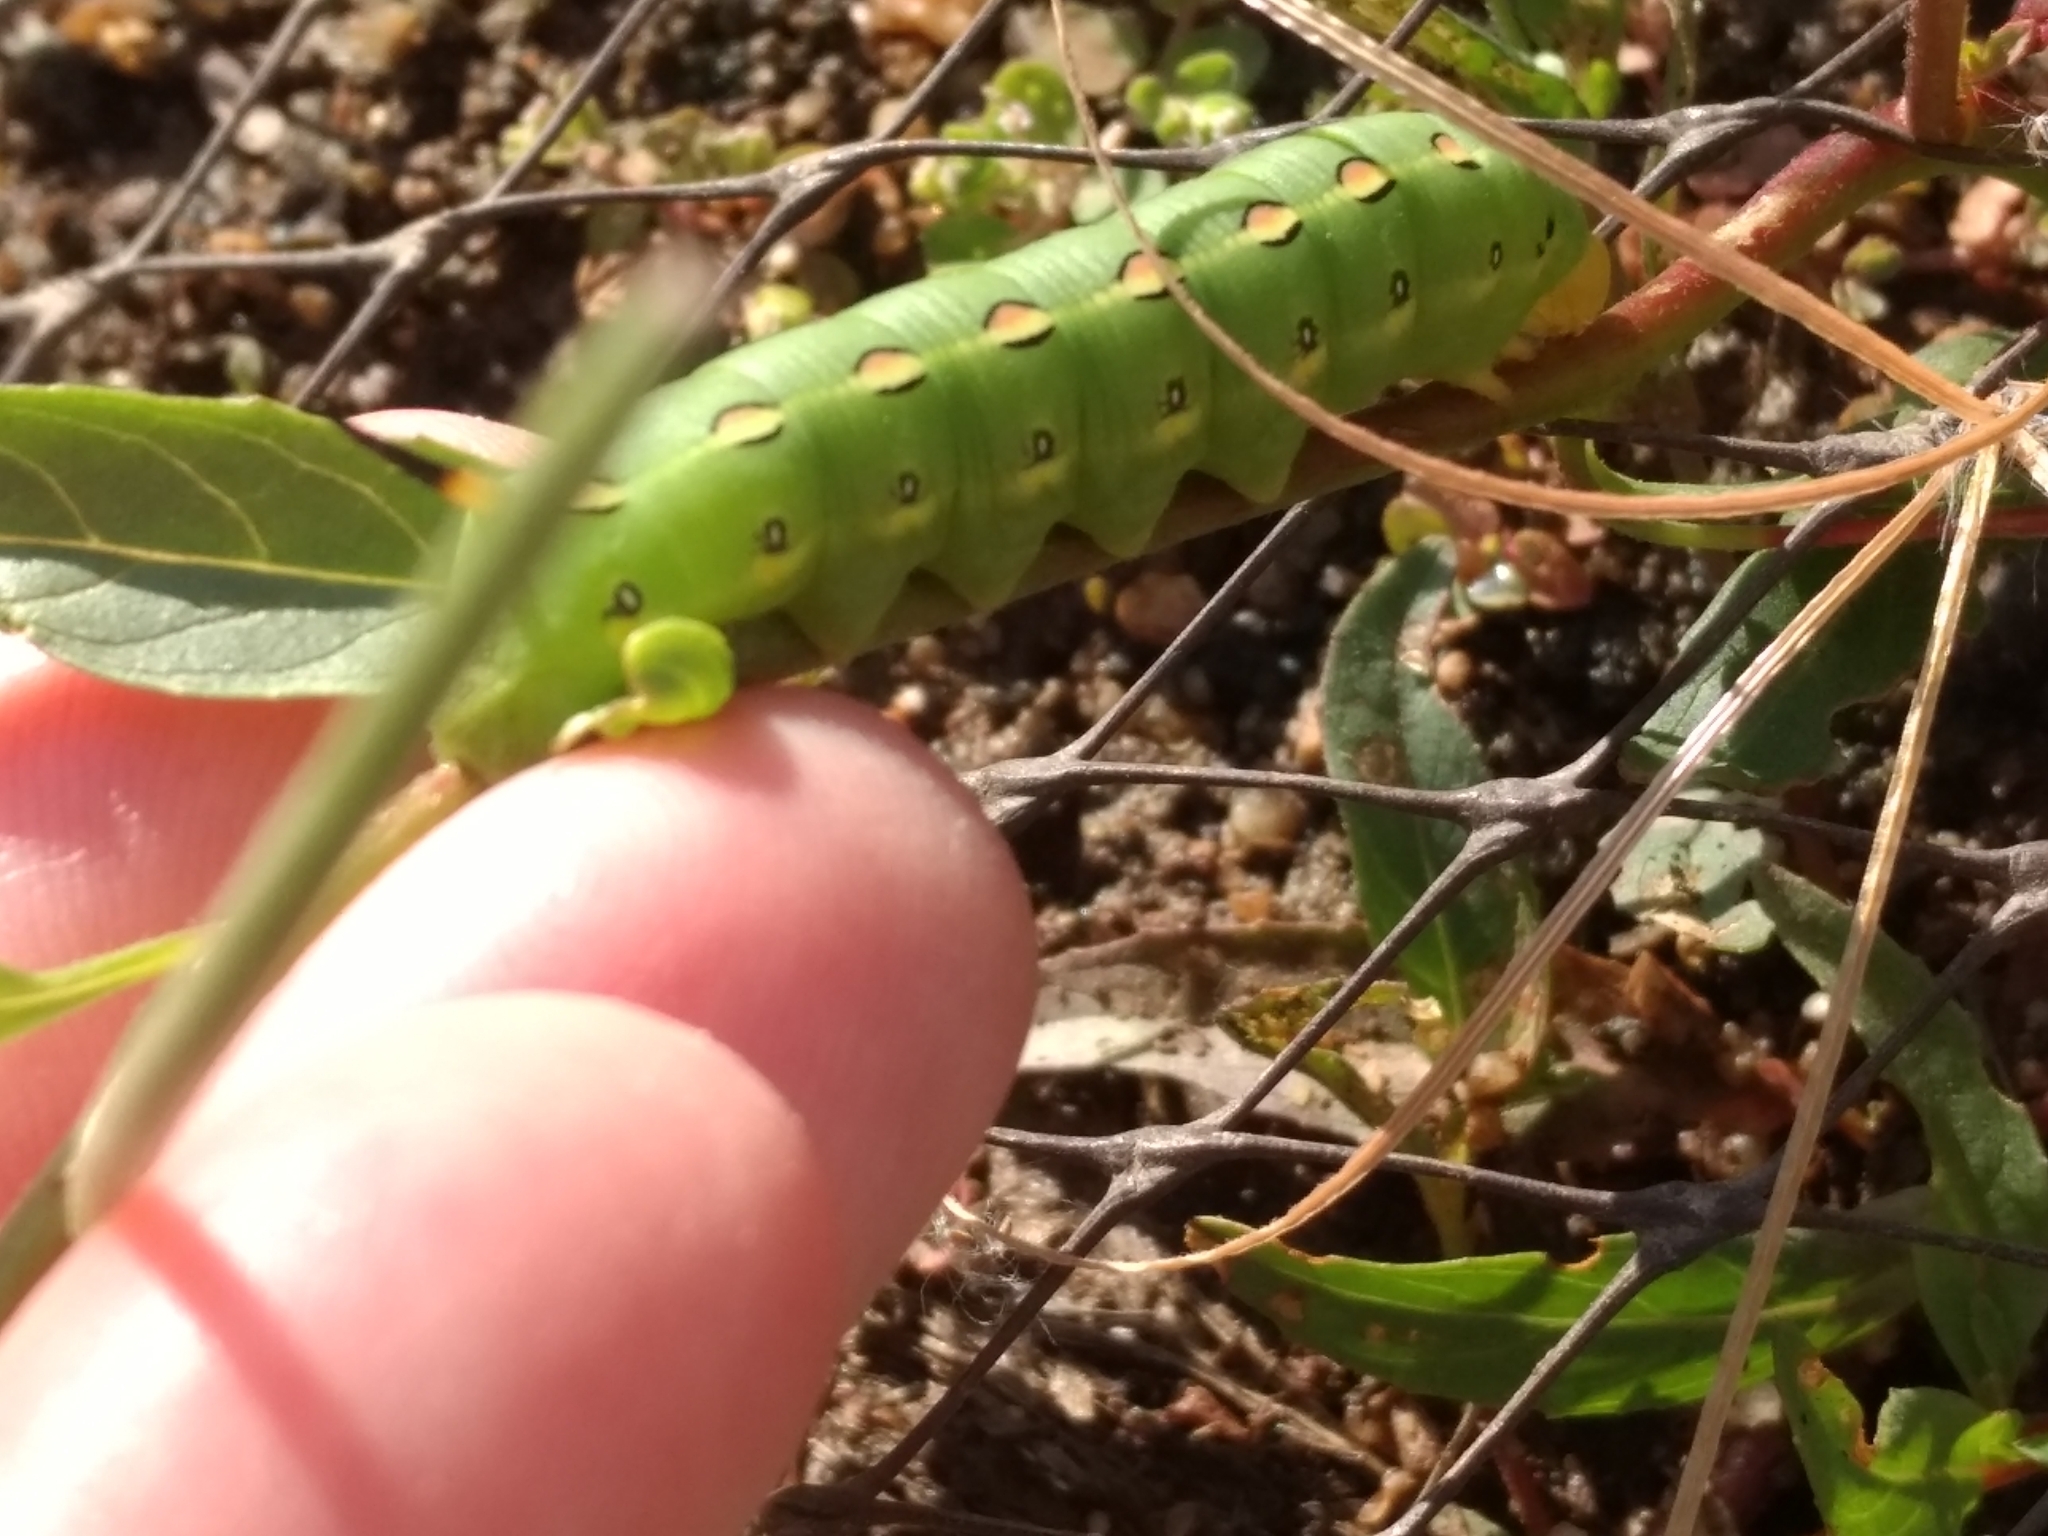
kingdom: Animalia
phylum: Arthropoda
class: Insecta
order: Lepidoptera
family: Sphingidae
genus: Hyles
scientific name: Hyles lineata
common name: White-lined sphinx
